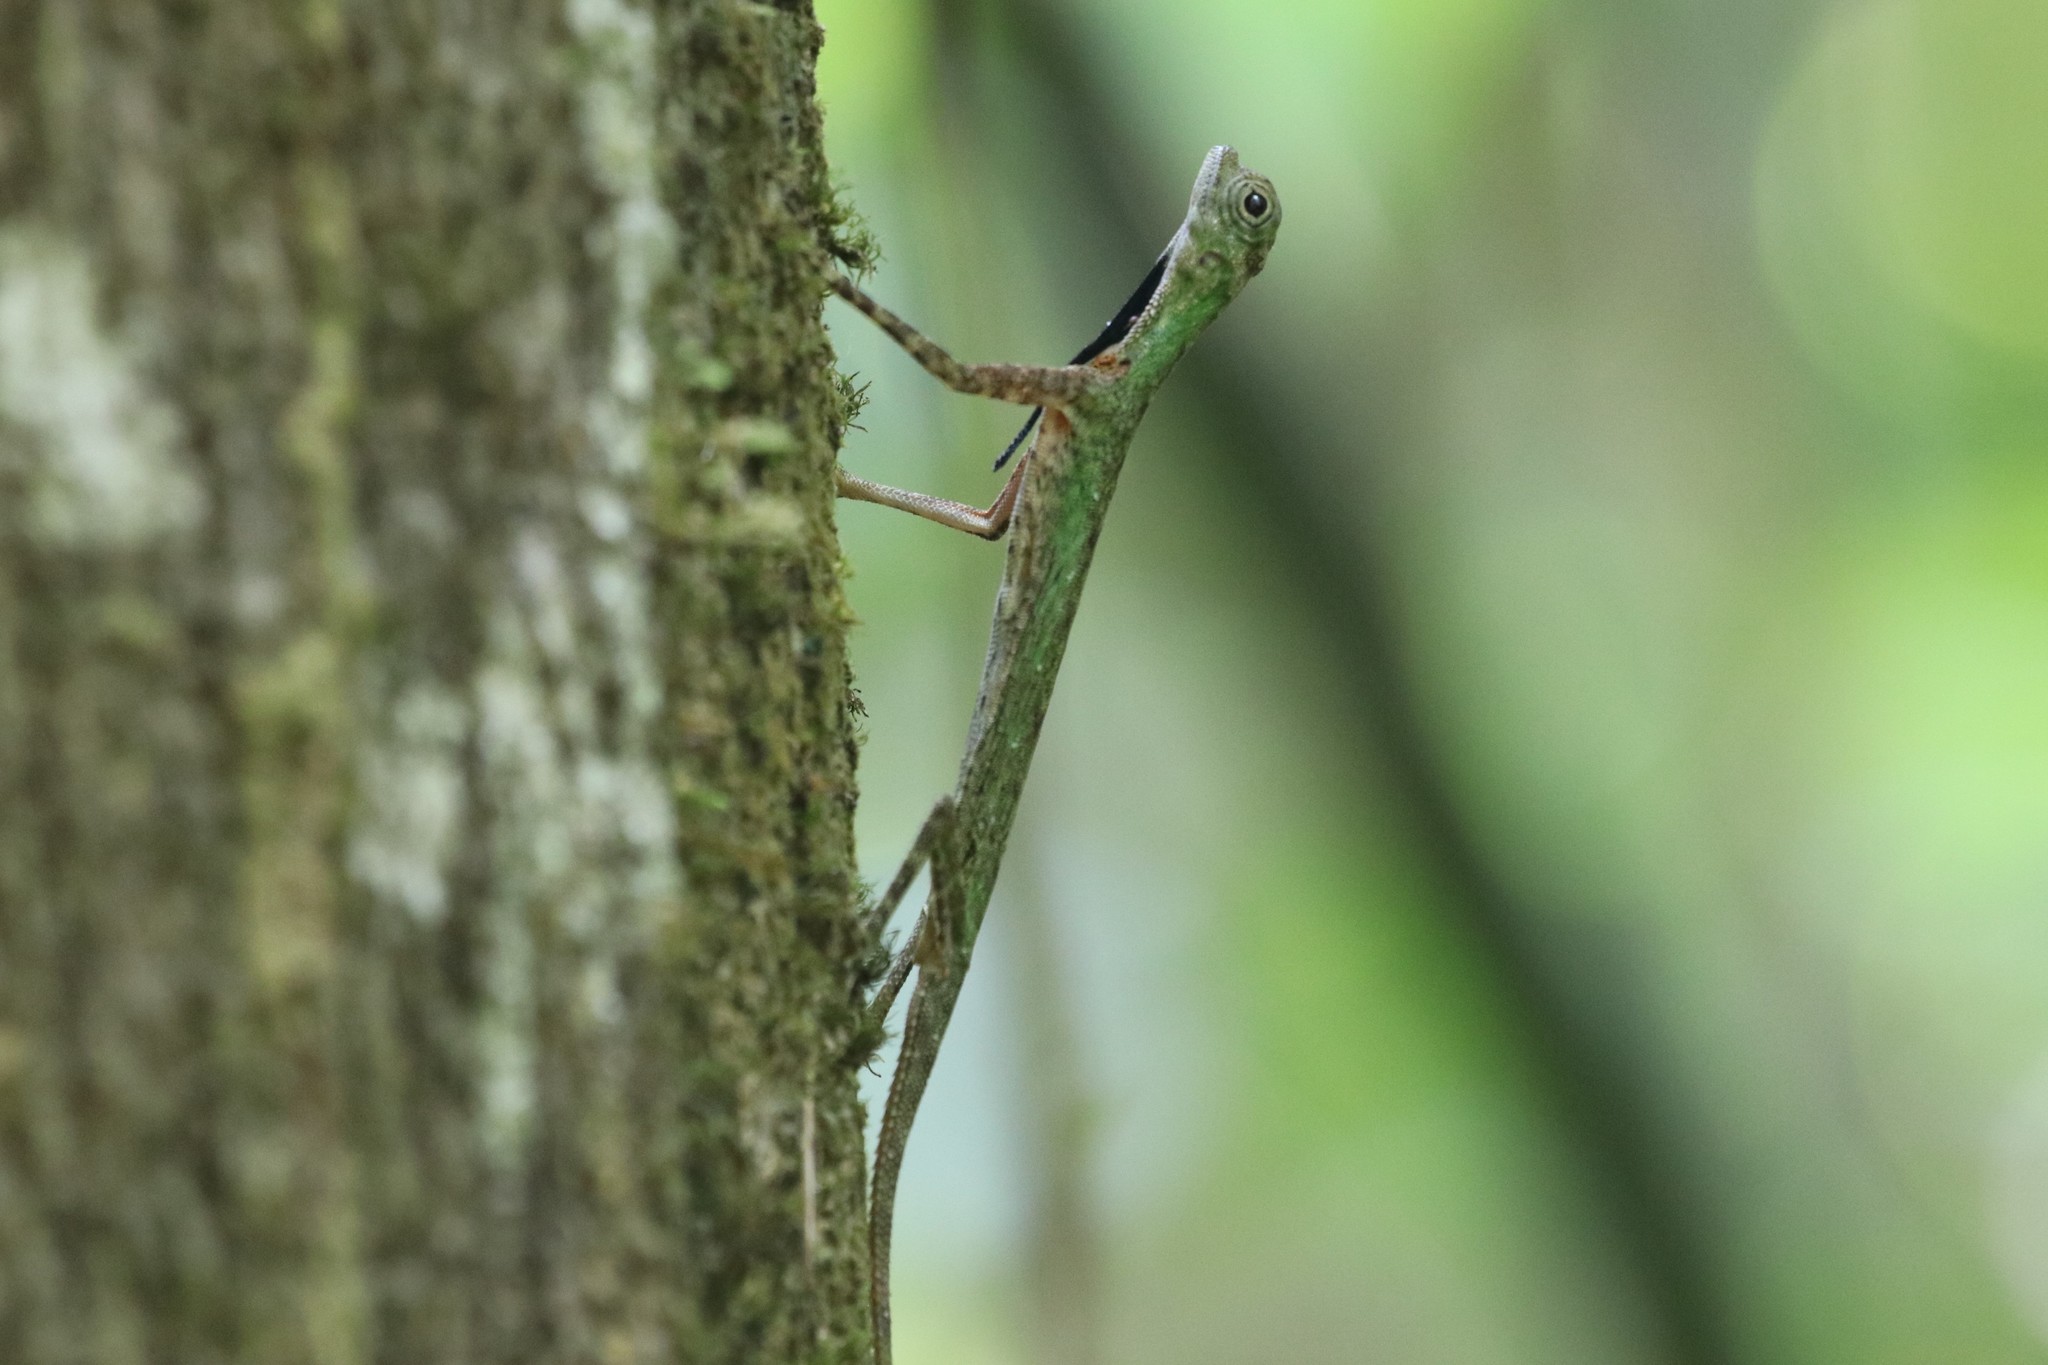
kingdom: Animalia
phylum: Chordata
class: Squamata
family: Agamidae
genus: Draco
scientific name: Draco melanopogon
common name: Black-barbed flying dragon
